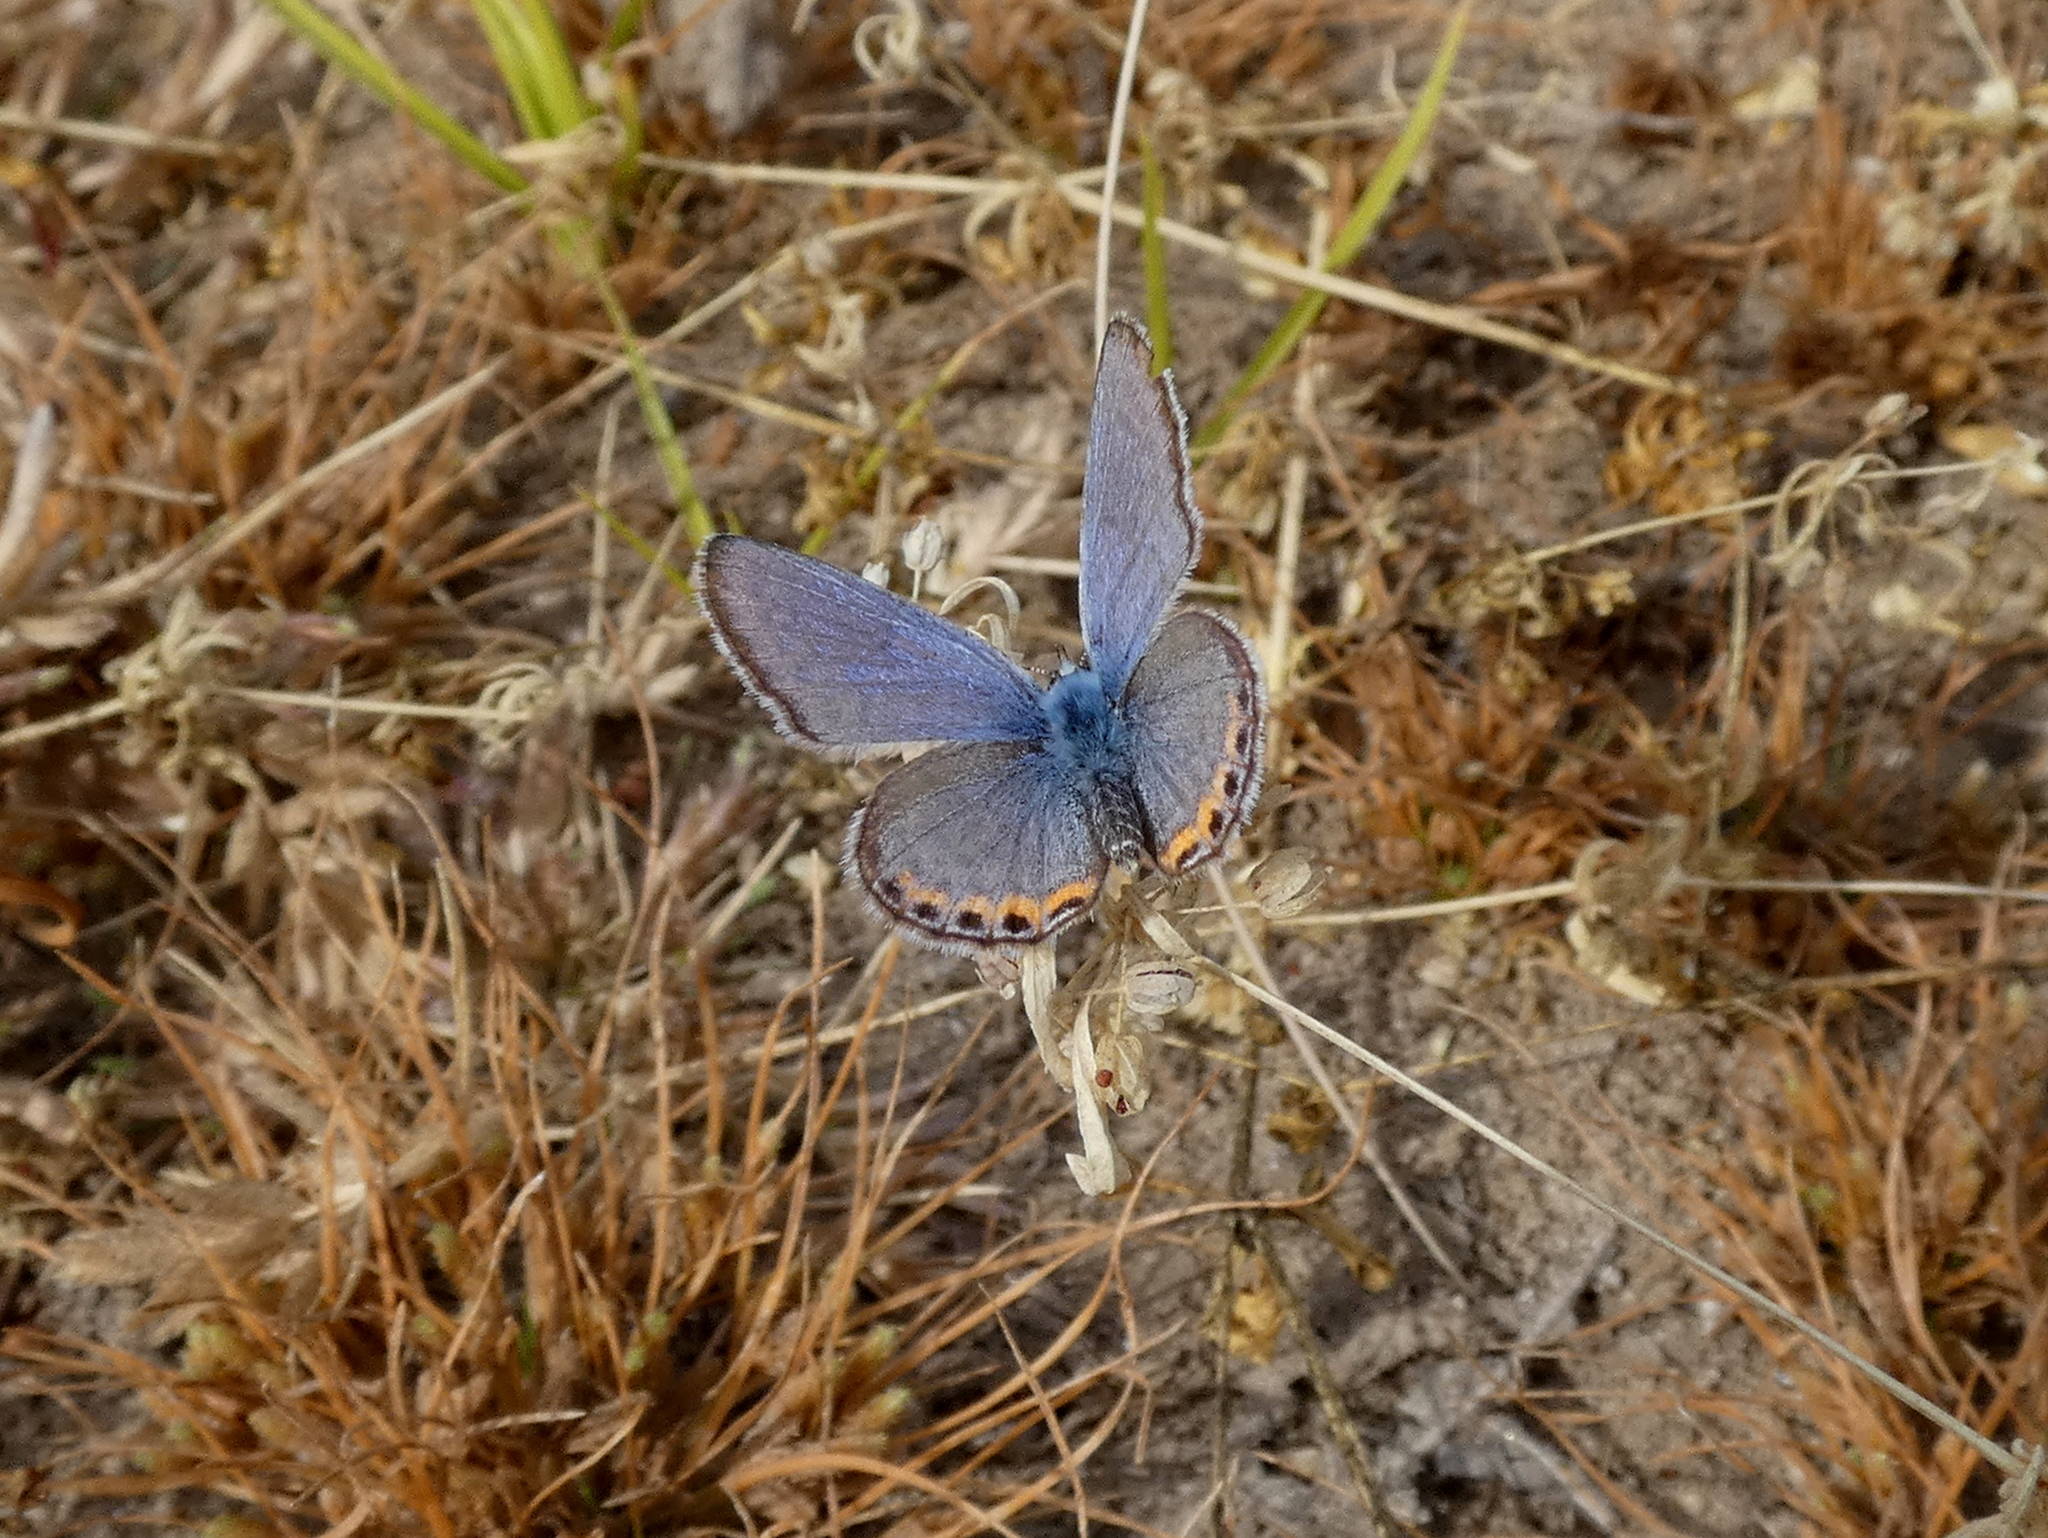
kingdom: Animalia
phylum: Arthropoda
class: Insecta
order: Lepidoptera
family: Lycaenidae
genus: Icaricia
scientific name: Icaricia acmon
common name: Acmon blue
